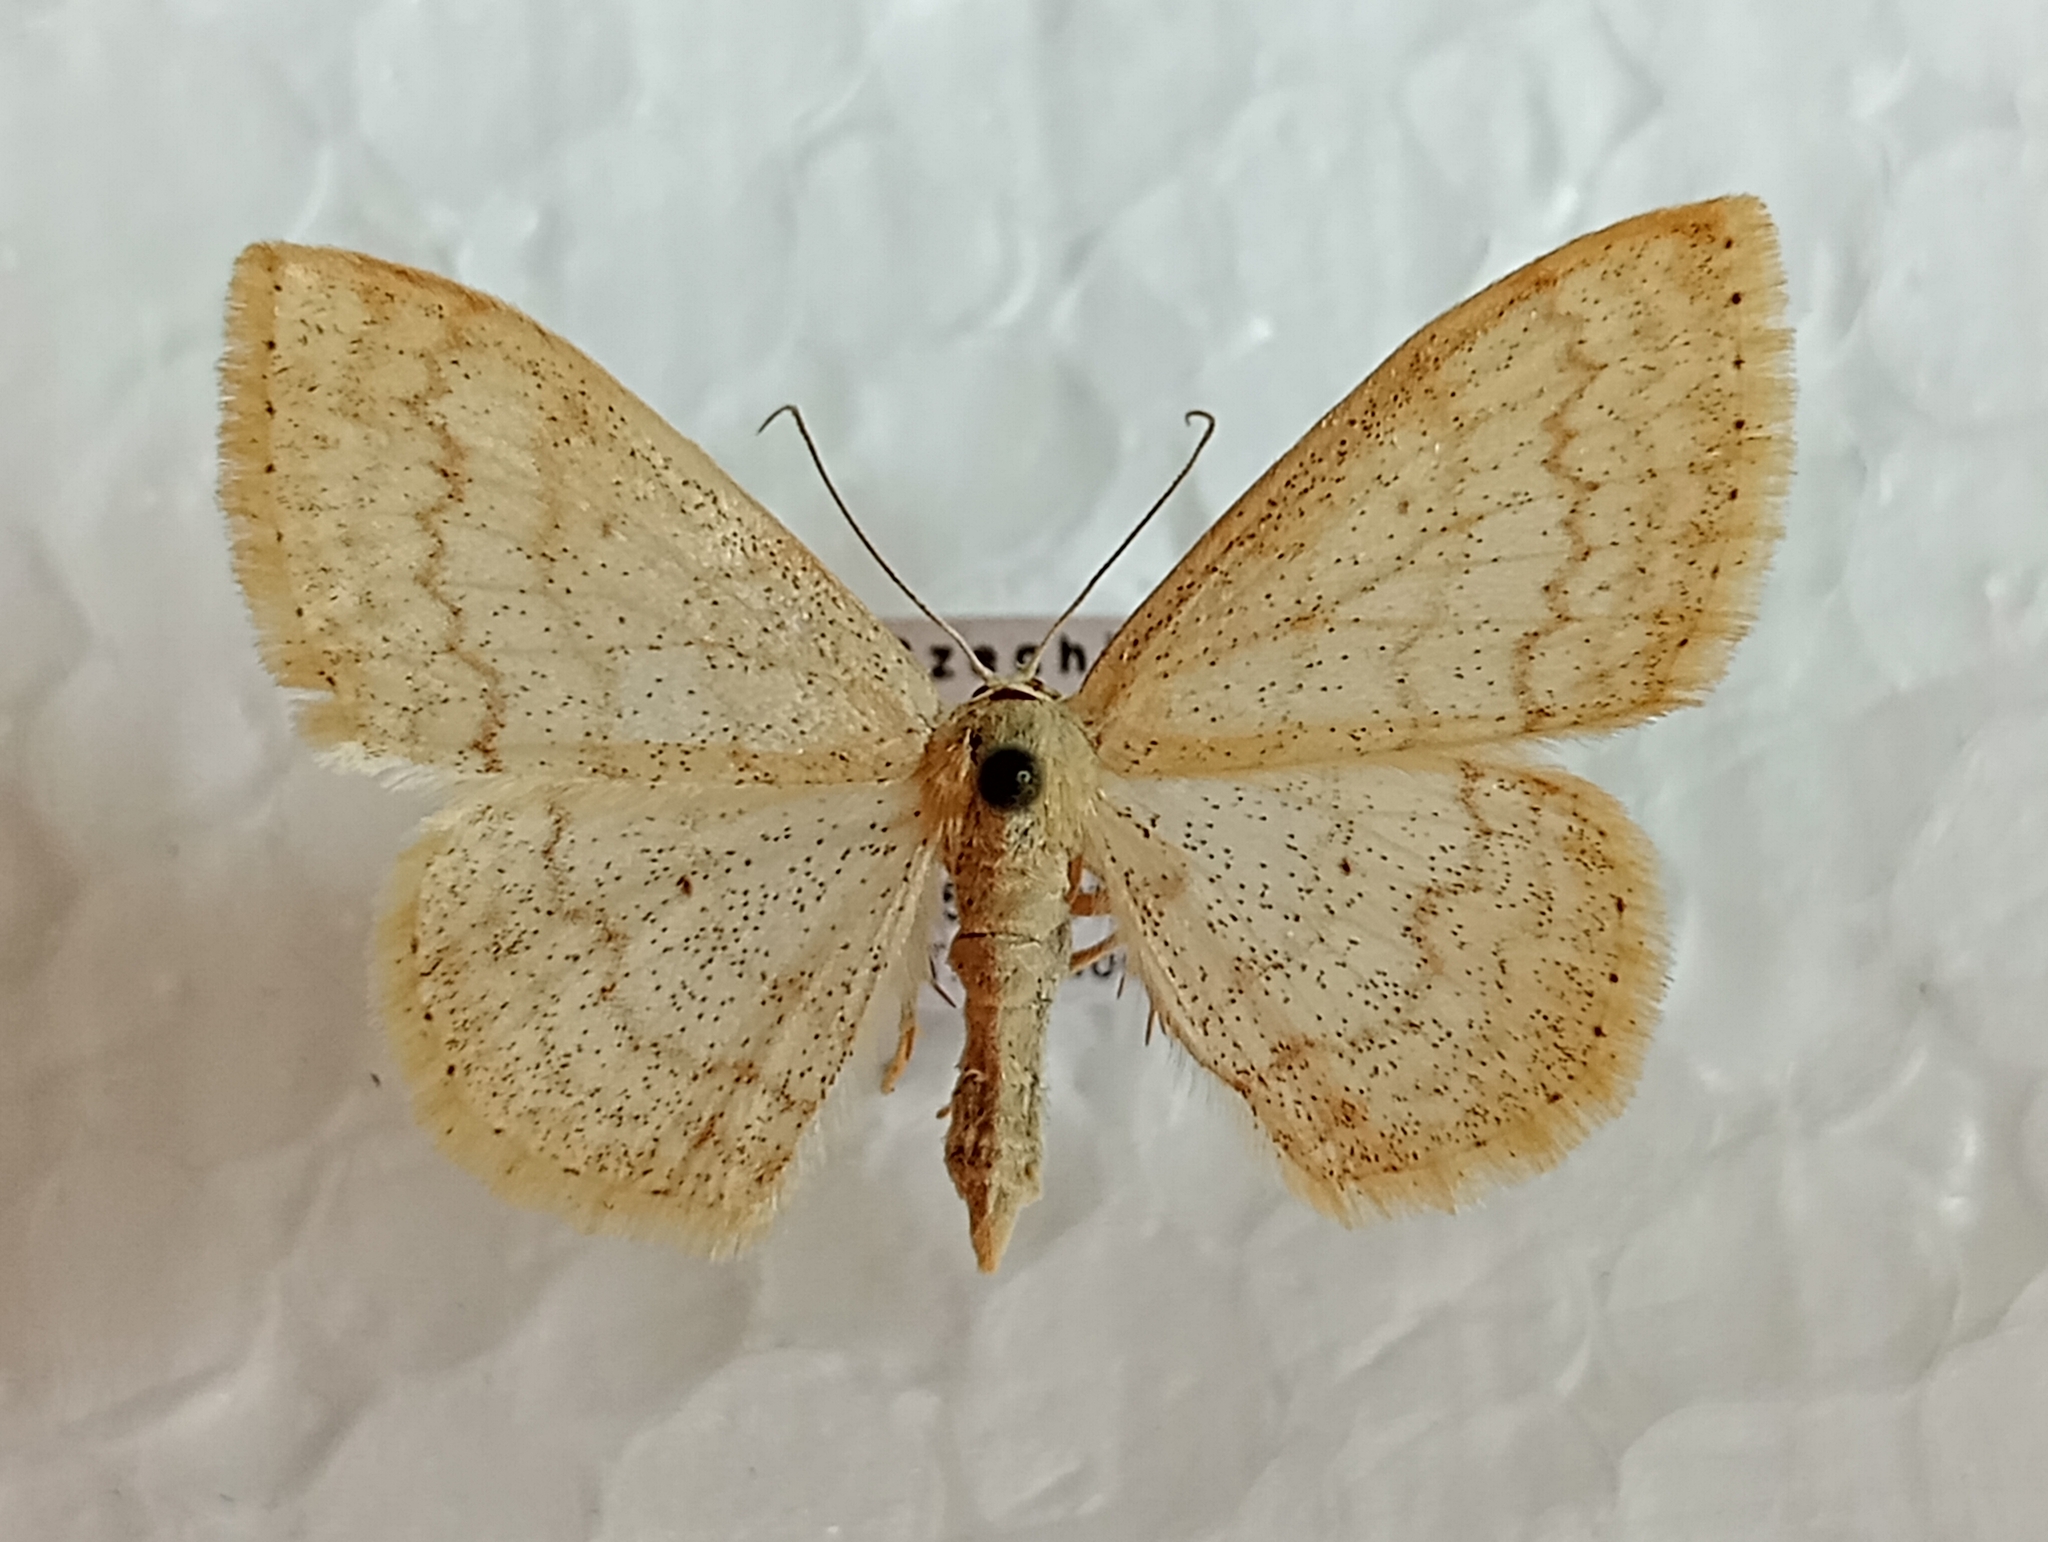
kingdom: Animalia
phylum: Arthropoda
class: Insecta
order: Lepidoptera
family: Geometridae
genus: Scopula
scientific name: Scopula floslactata
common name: Cream wave
